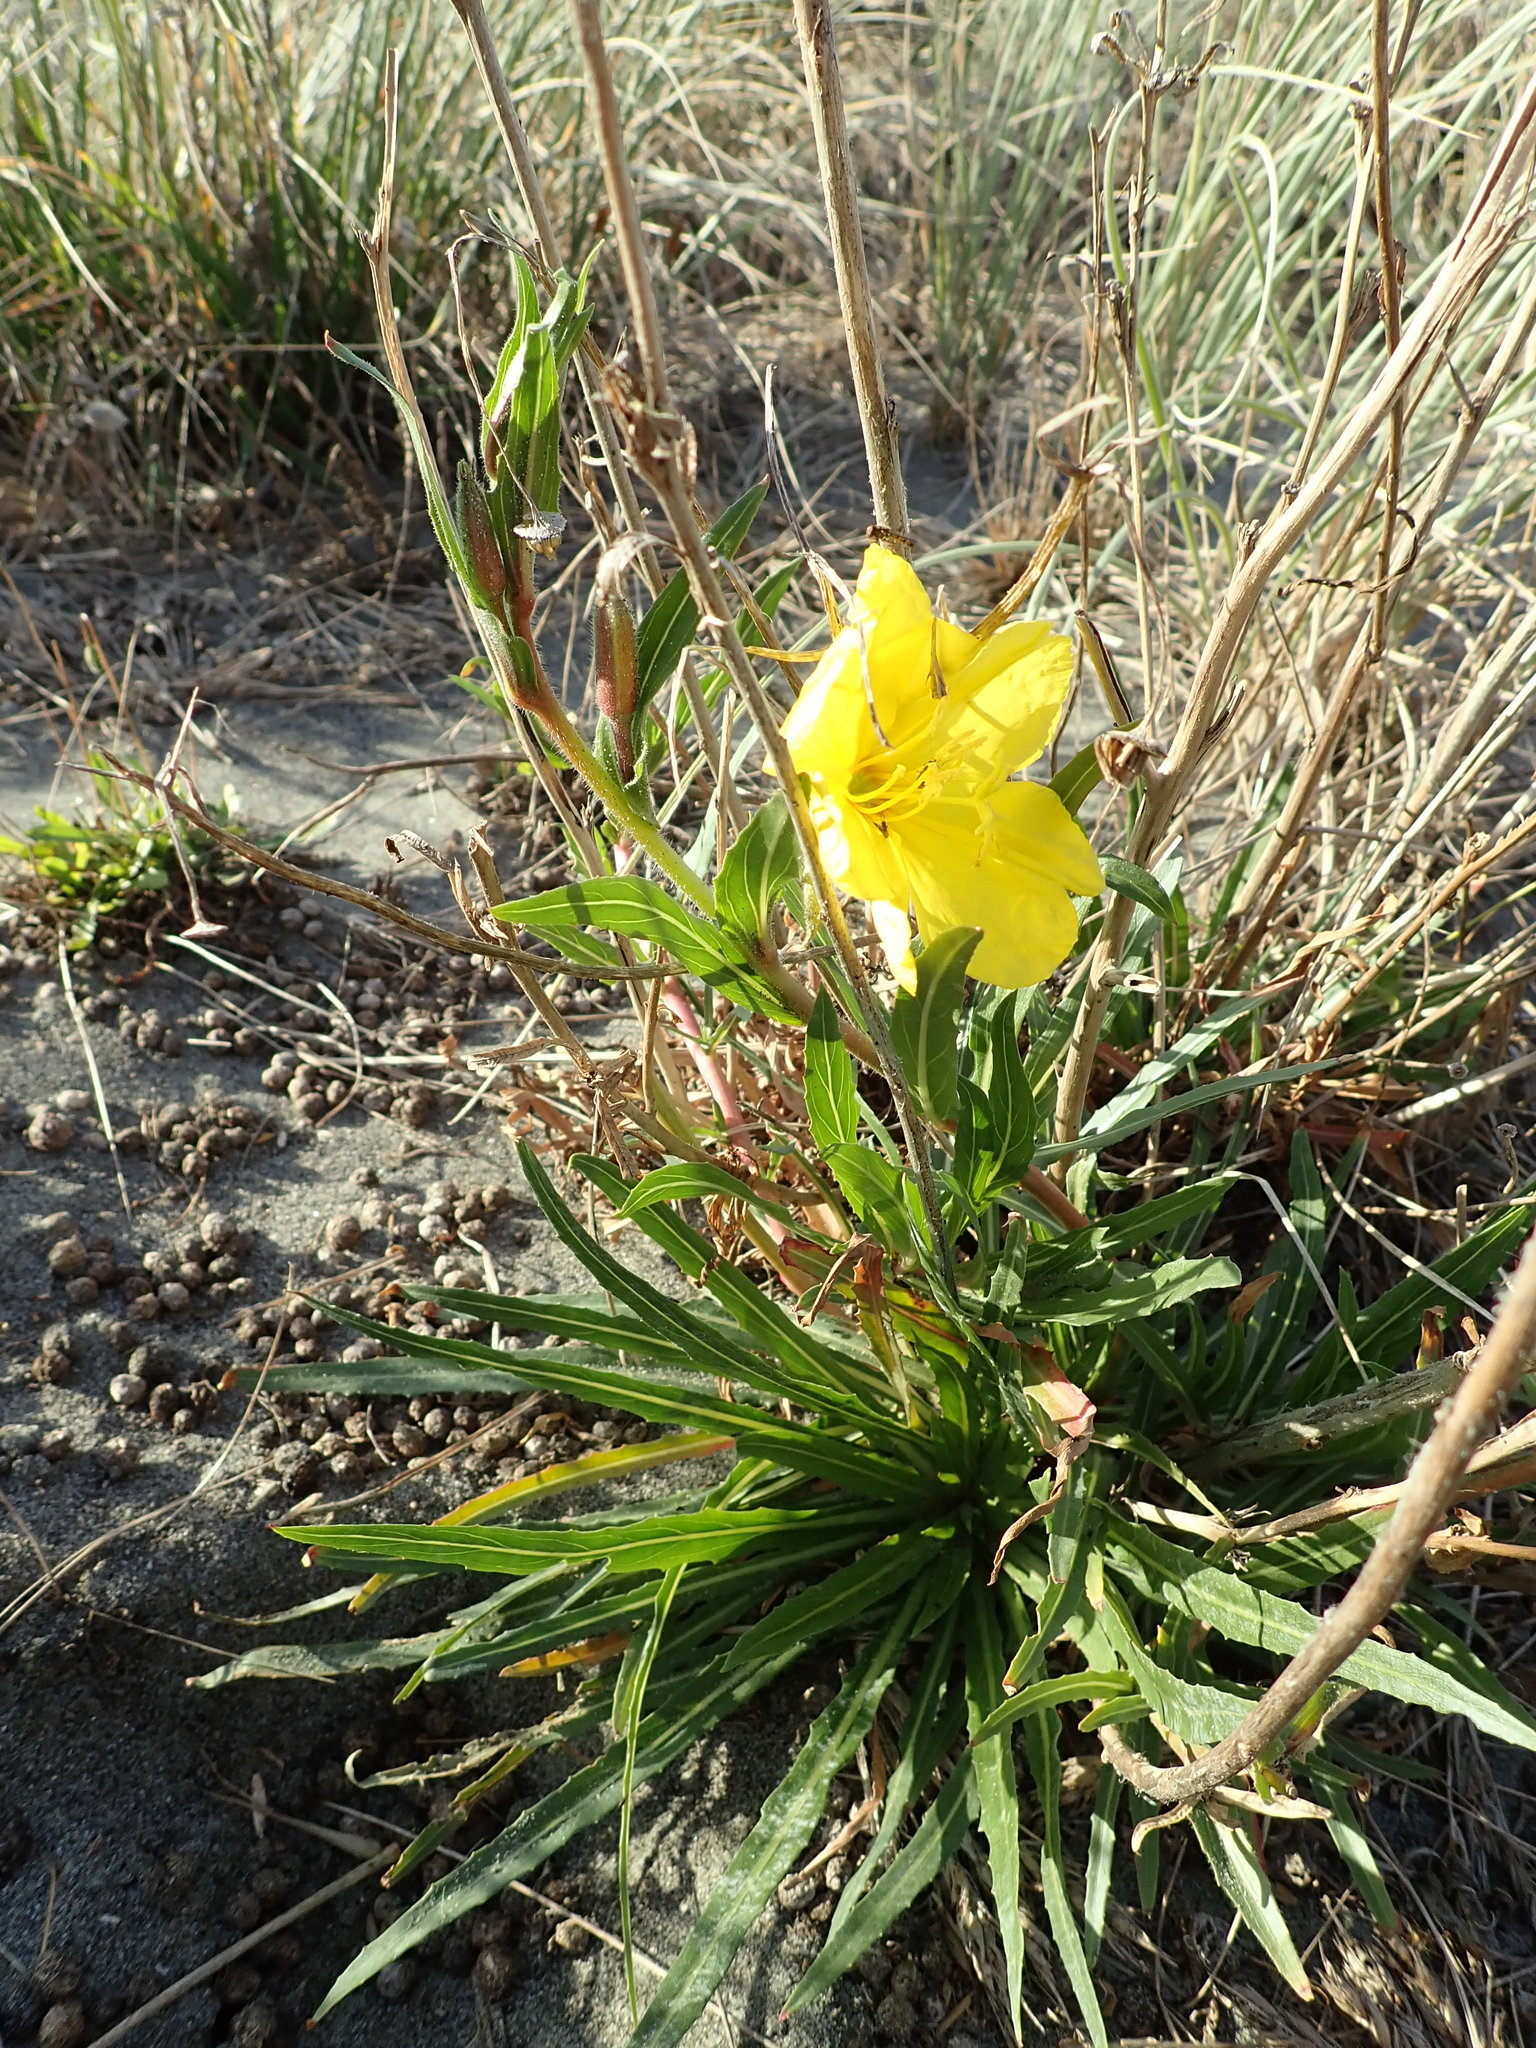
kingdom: Plantae
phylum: Tracheophyta
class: Magnoliopsida
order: Myrtales
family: Onagraceae
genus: Oenothera
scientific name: Oenothera stricta
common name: Fragrant evening-primrose
